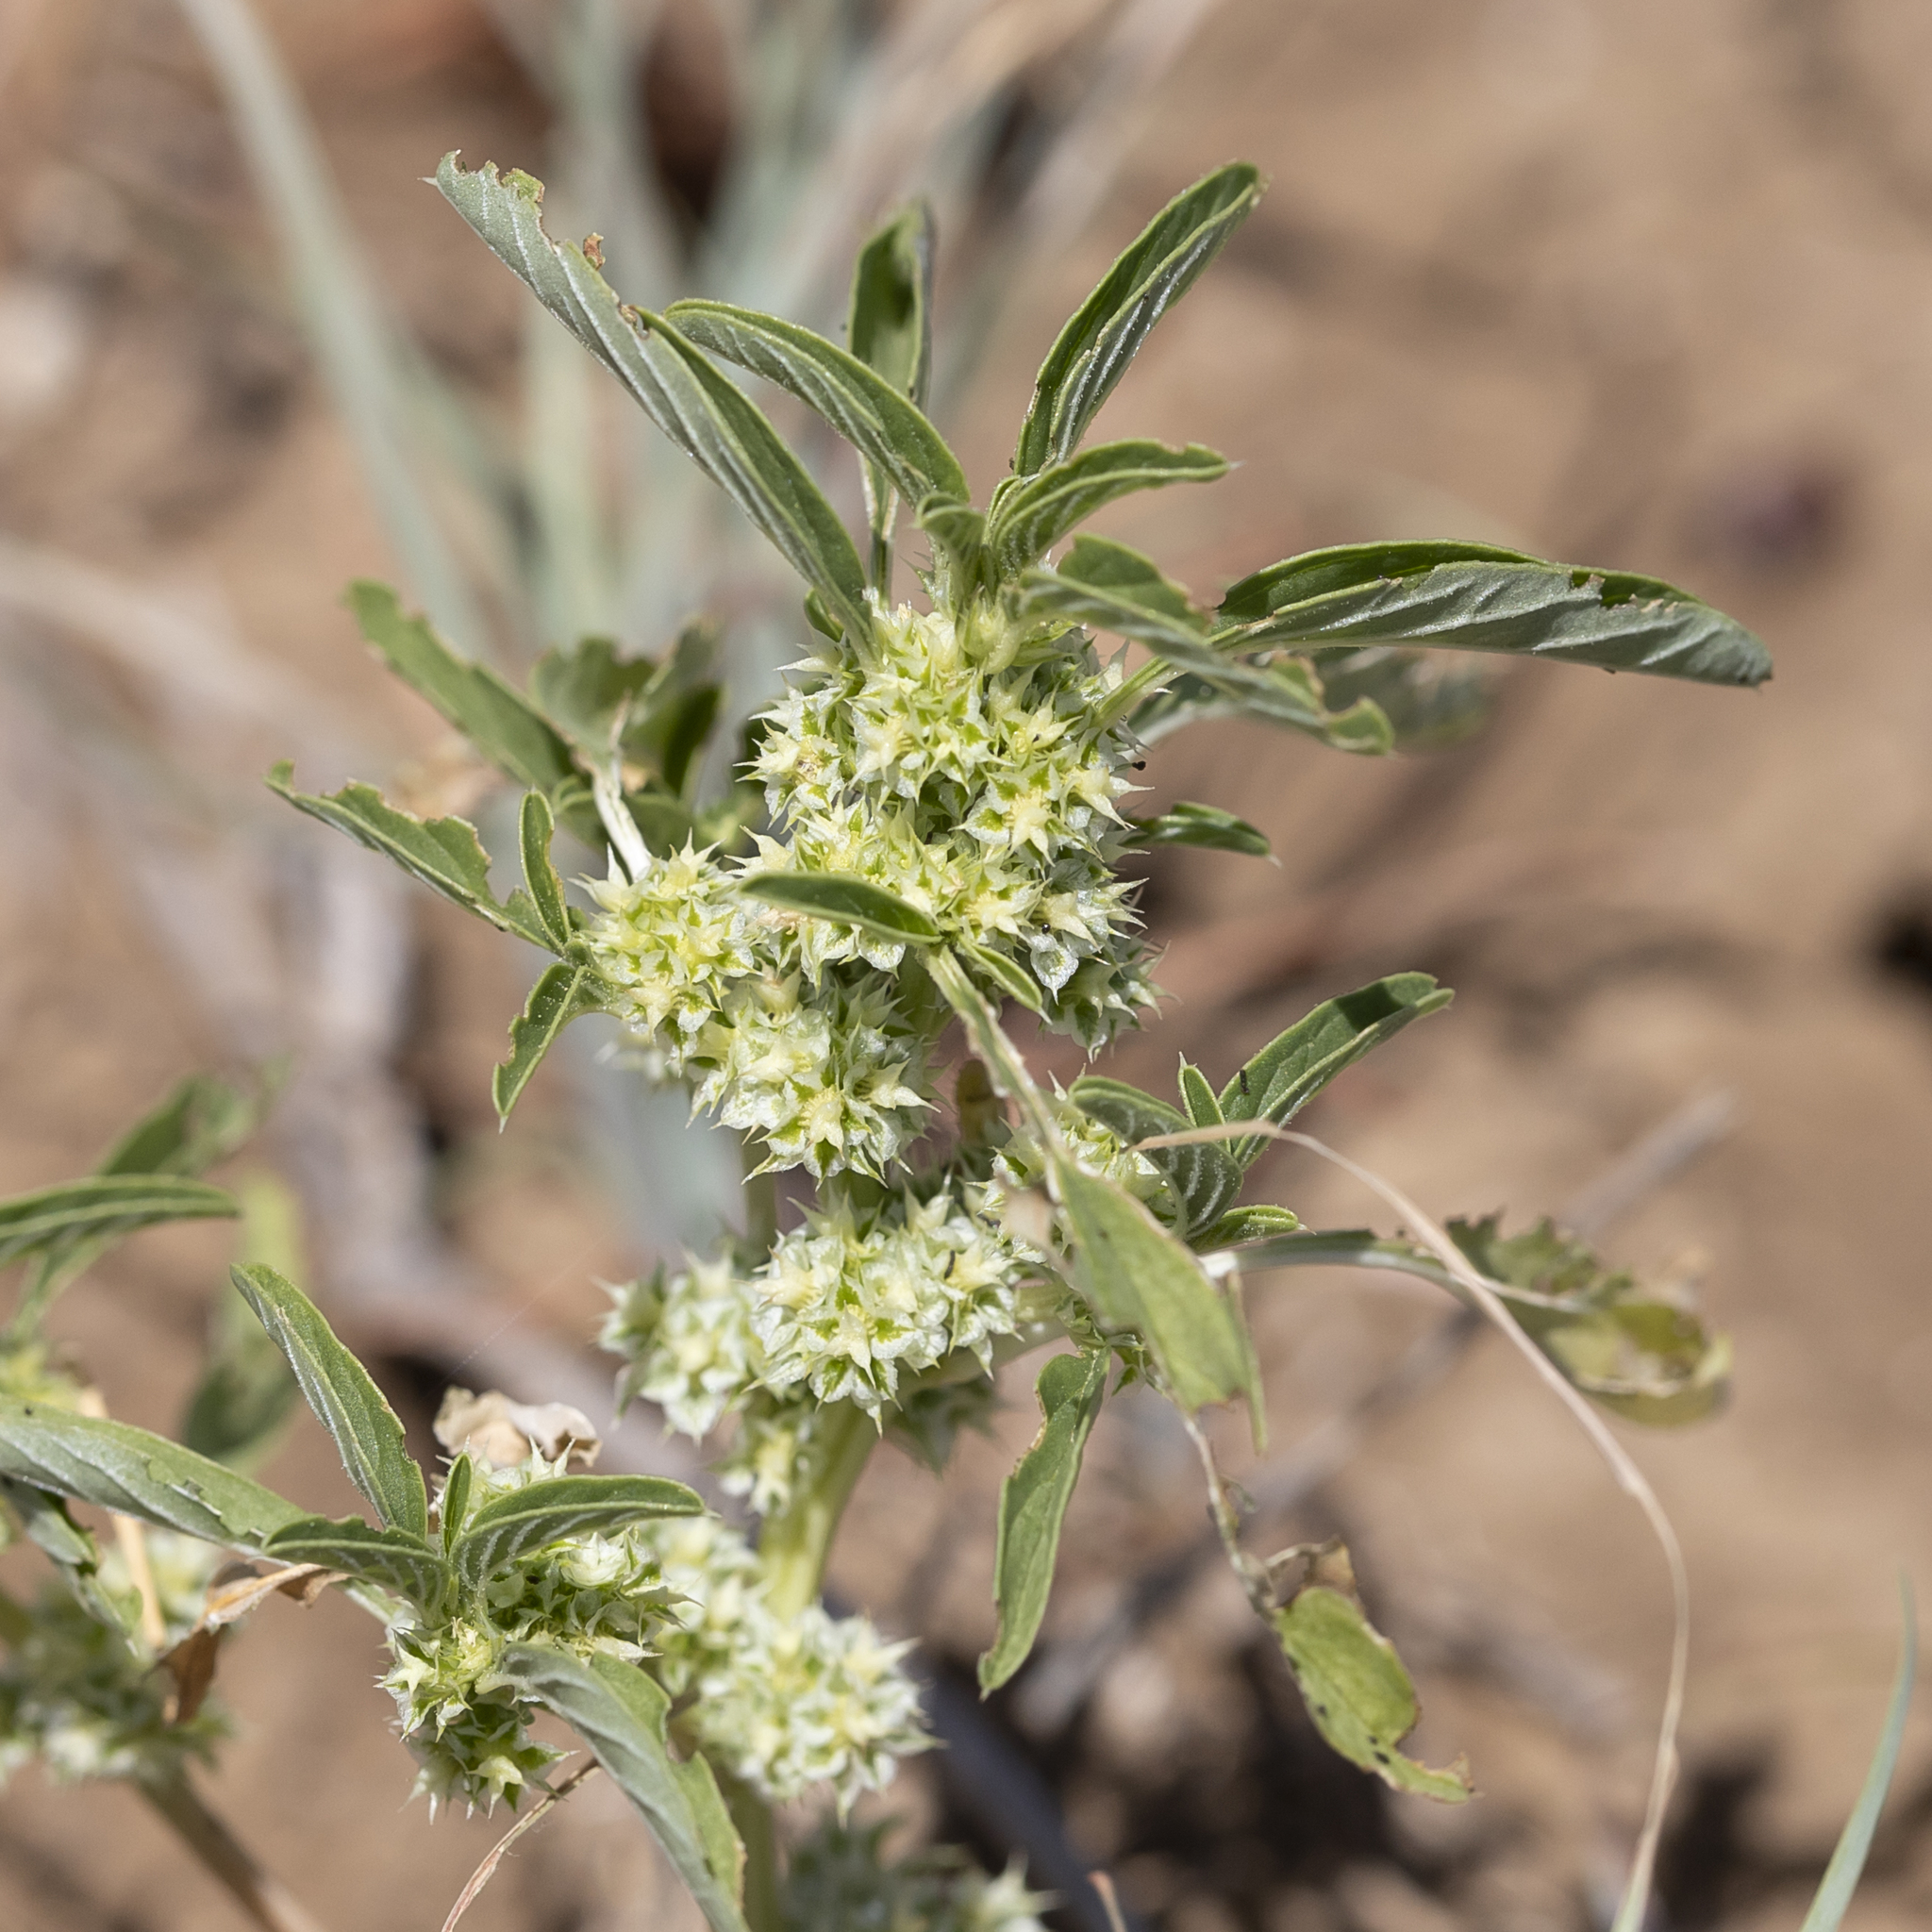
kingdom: Plantae
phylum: Tracheophyta
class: Magnoliopsida
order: Caryophyllales
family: Amaranthaceae
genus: Amaranthus
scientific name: Amaranthus mitchellii
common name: Mitchell's amaranth
